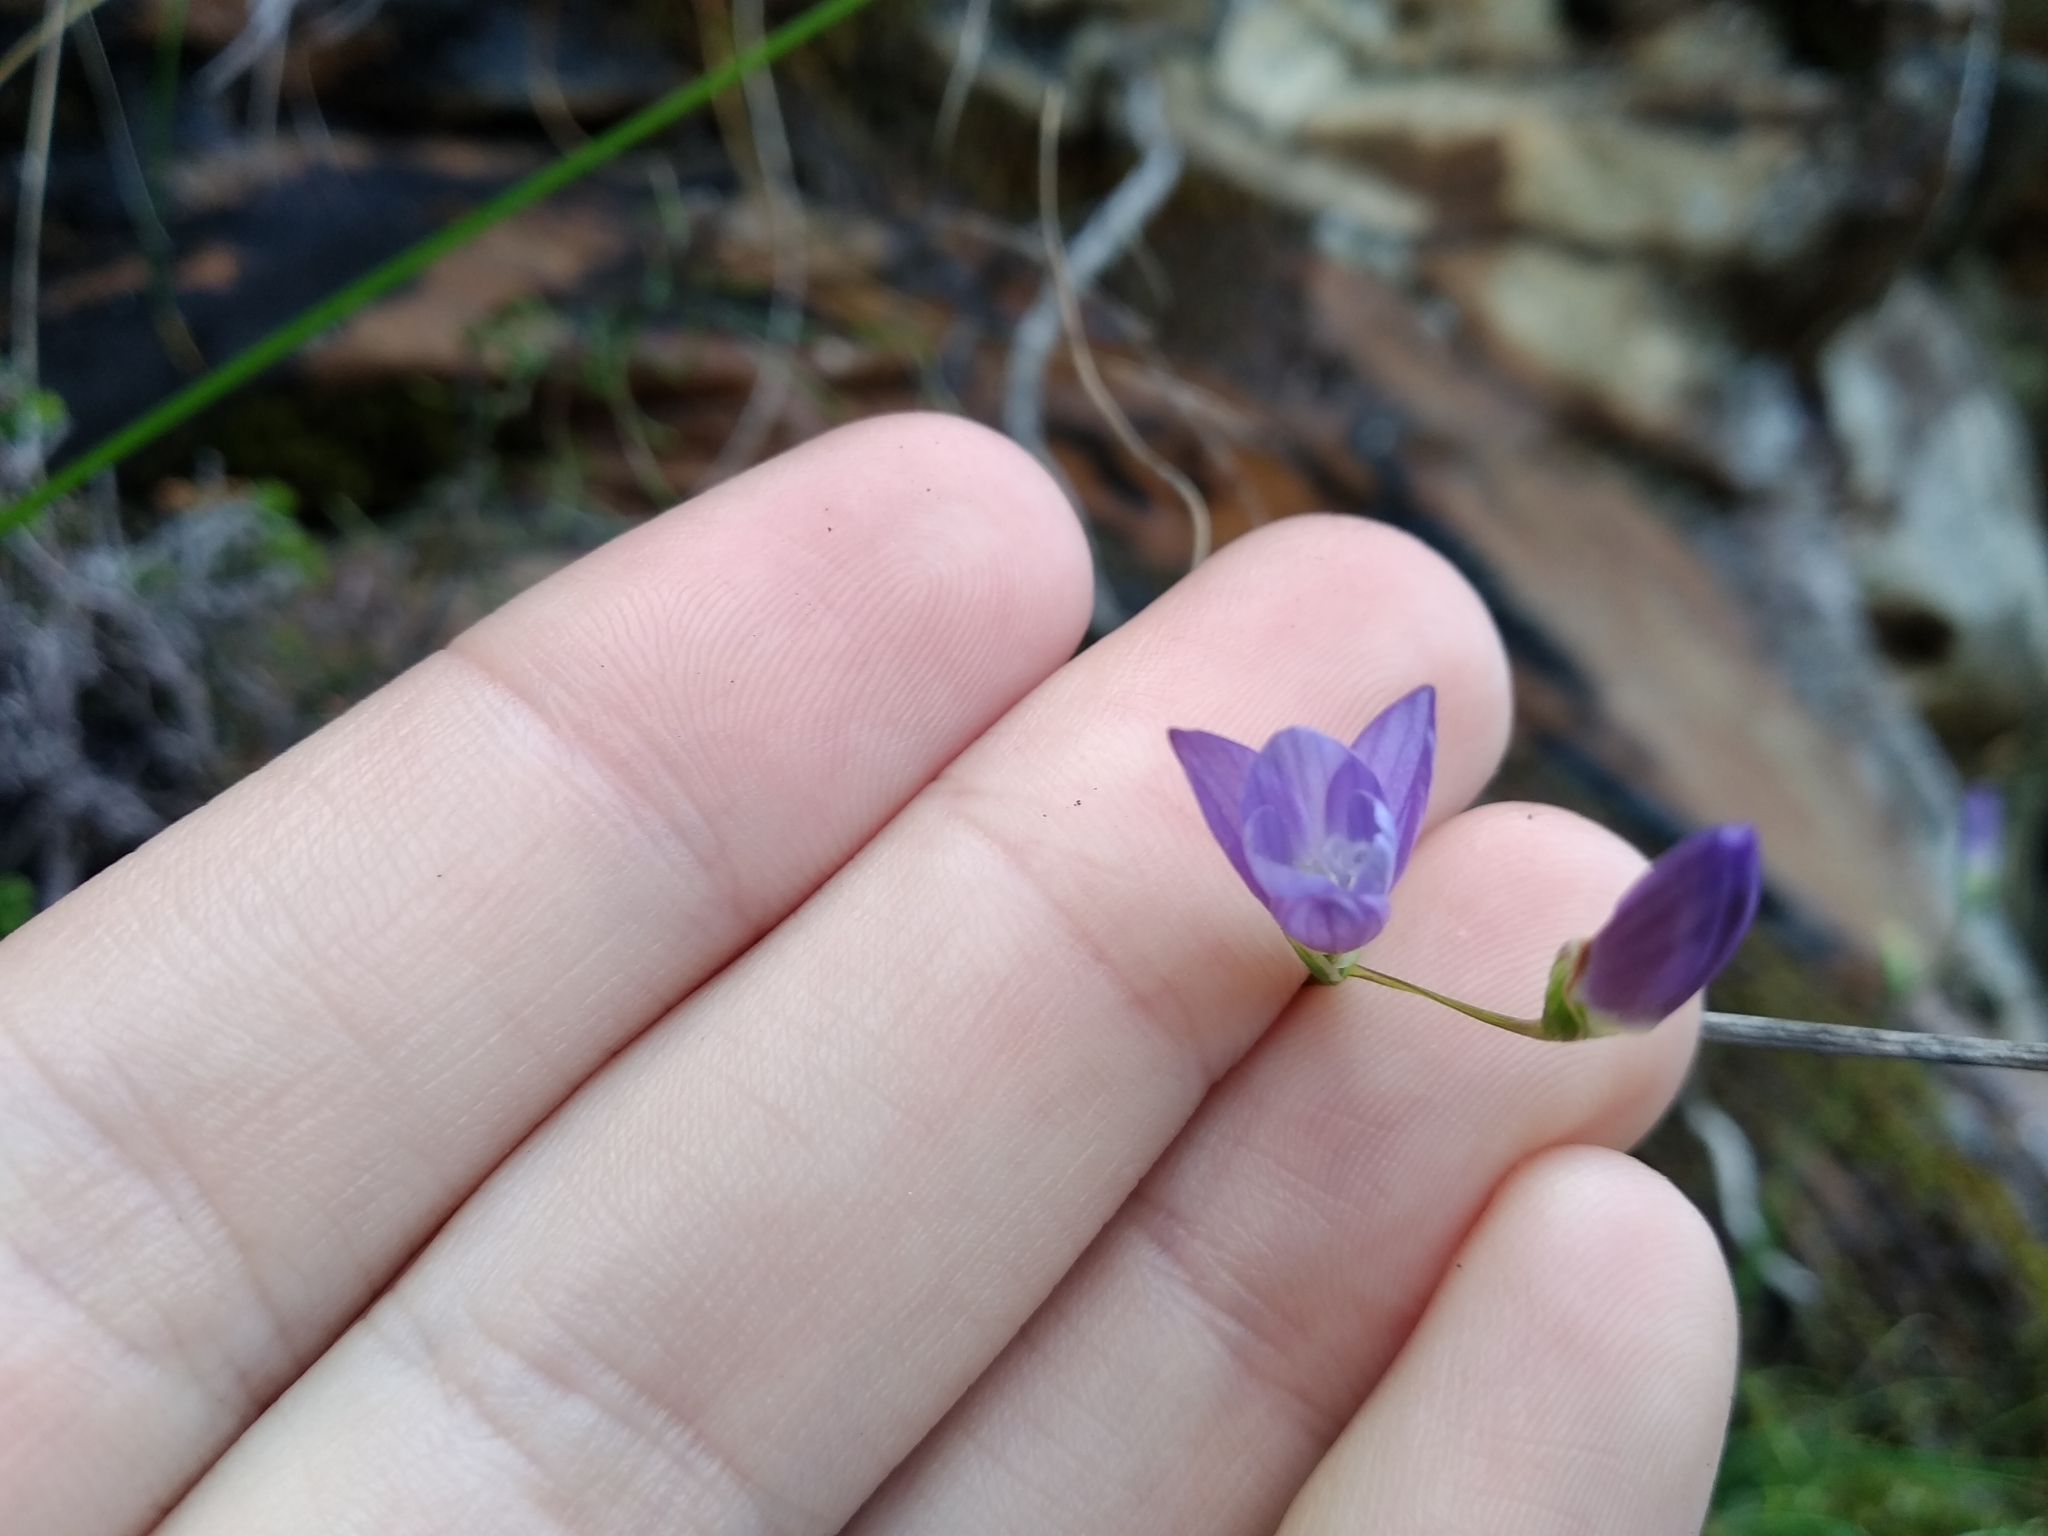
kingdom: Plantae
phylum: Tracheophyta
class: Liliopsida
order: Asparagales
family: Iridaceae
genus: Geissorhiza
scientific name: Geissorhiza aspera
